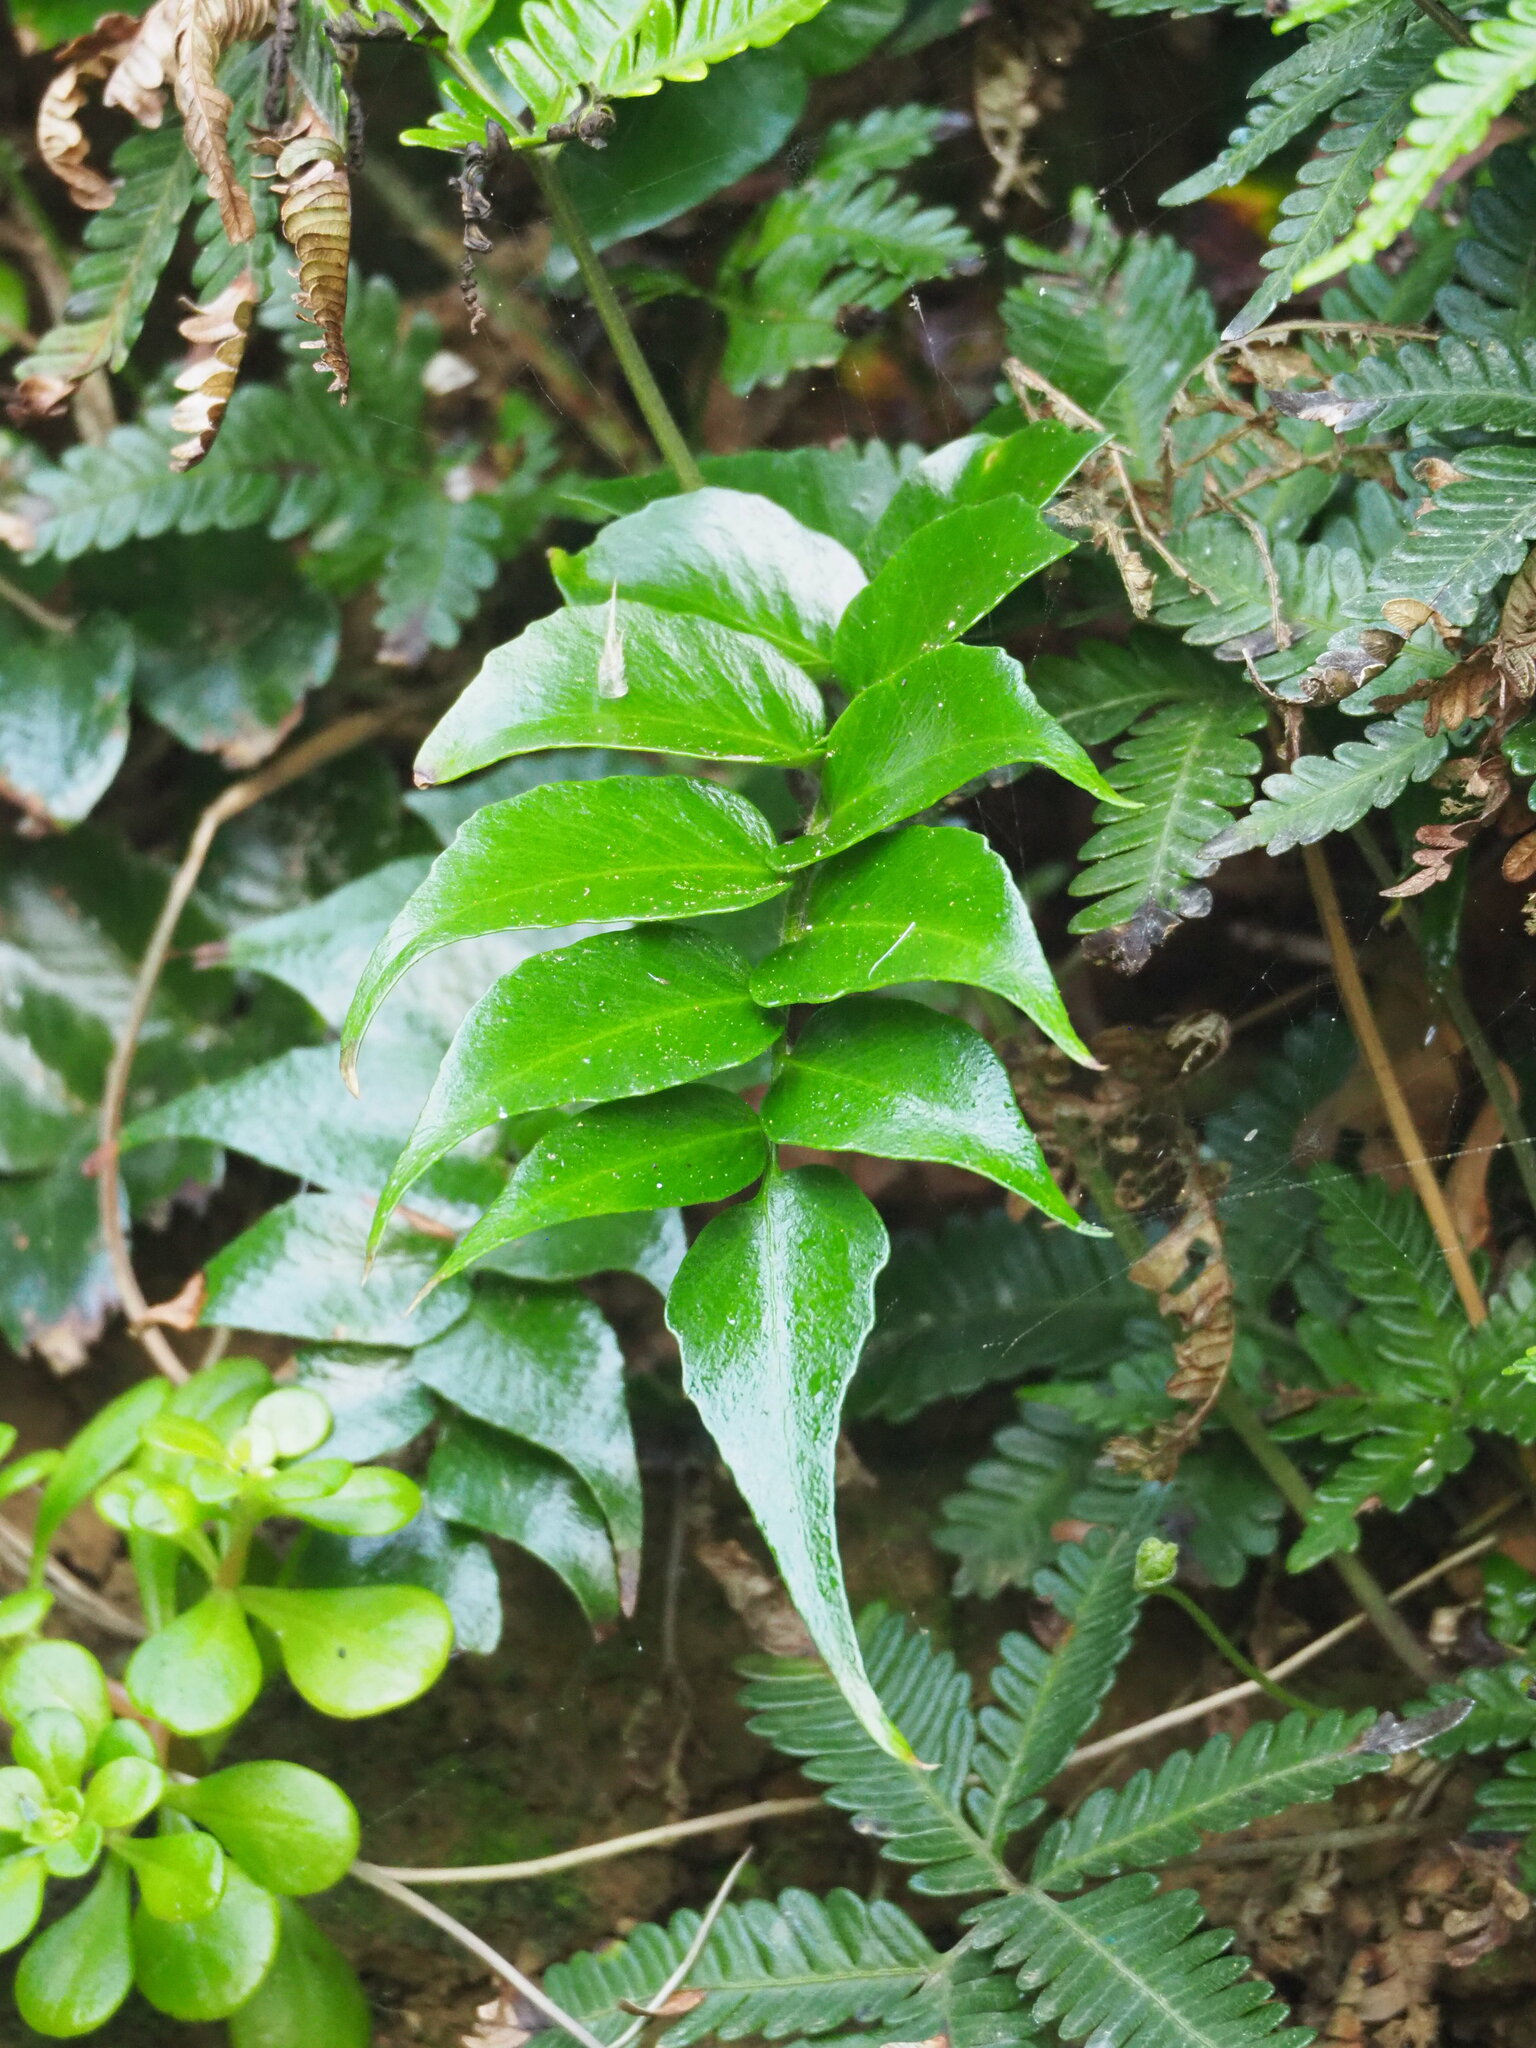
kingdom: Plantae
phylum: Tracheophyta
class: Polypodiopsida
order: Polypodiales
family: Dryopteridaceae
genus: Cyrtomium
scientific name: Cyrtomium falcatum
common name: House holly-fern
